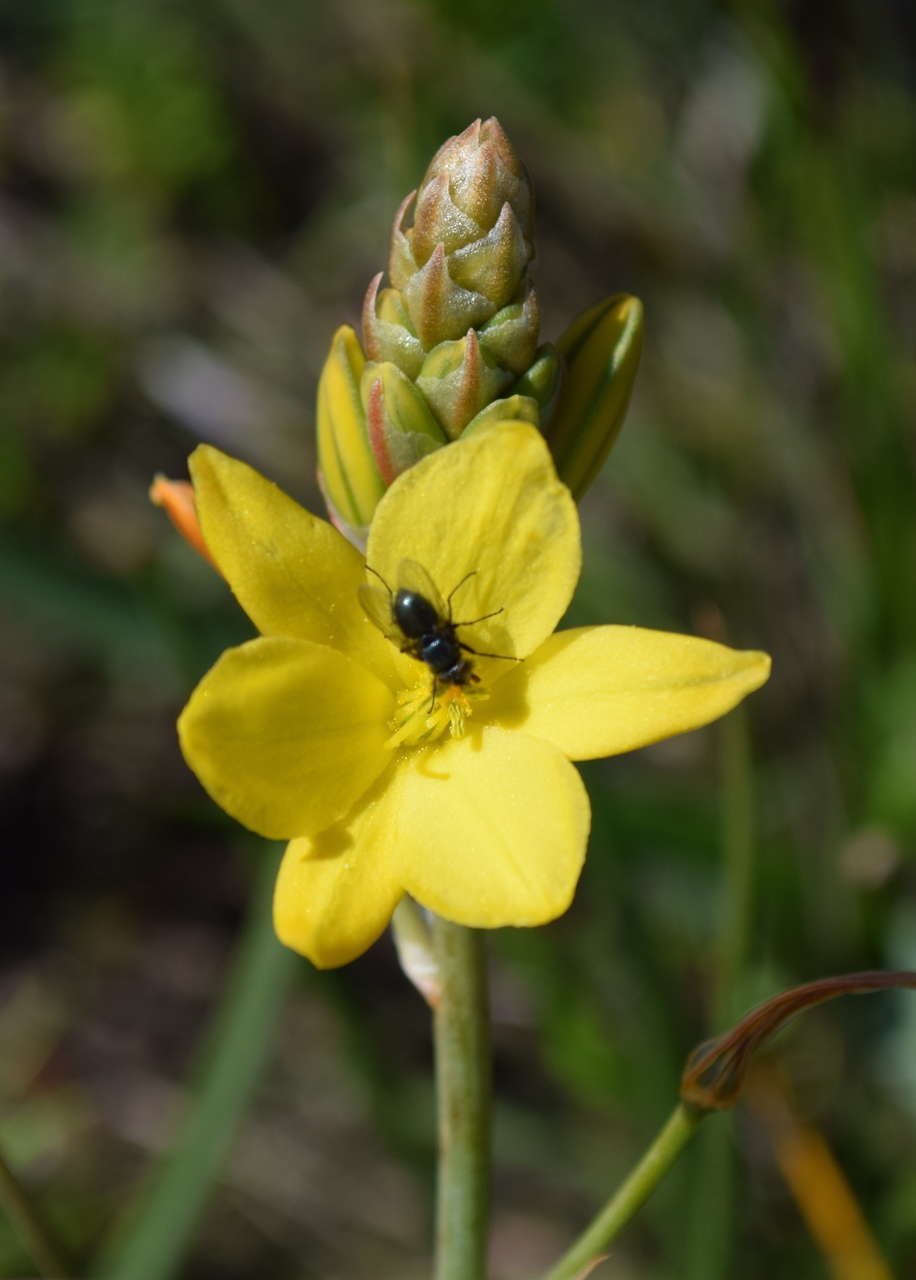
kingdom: Plantae
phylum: Tracheophyta
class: Liliopsida
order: Asparagales
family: Asphodelaceae
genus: Bulbine
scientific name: Bulbine bulbosa
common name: Golden-lily
